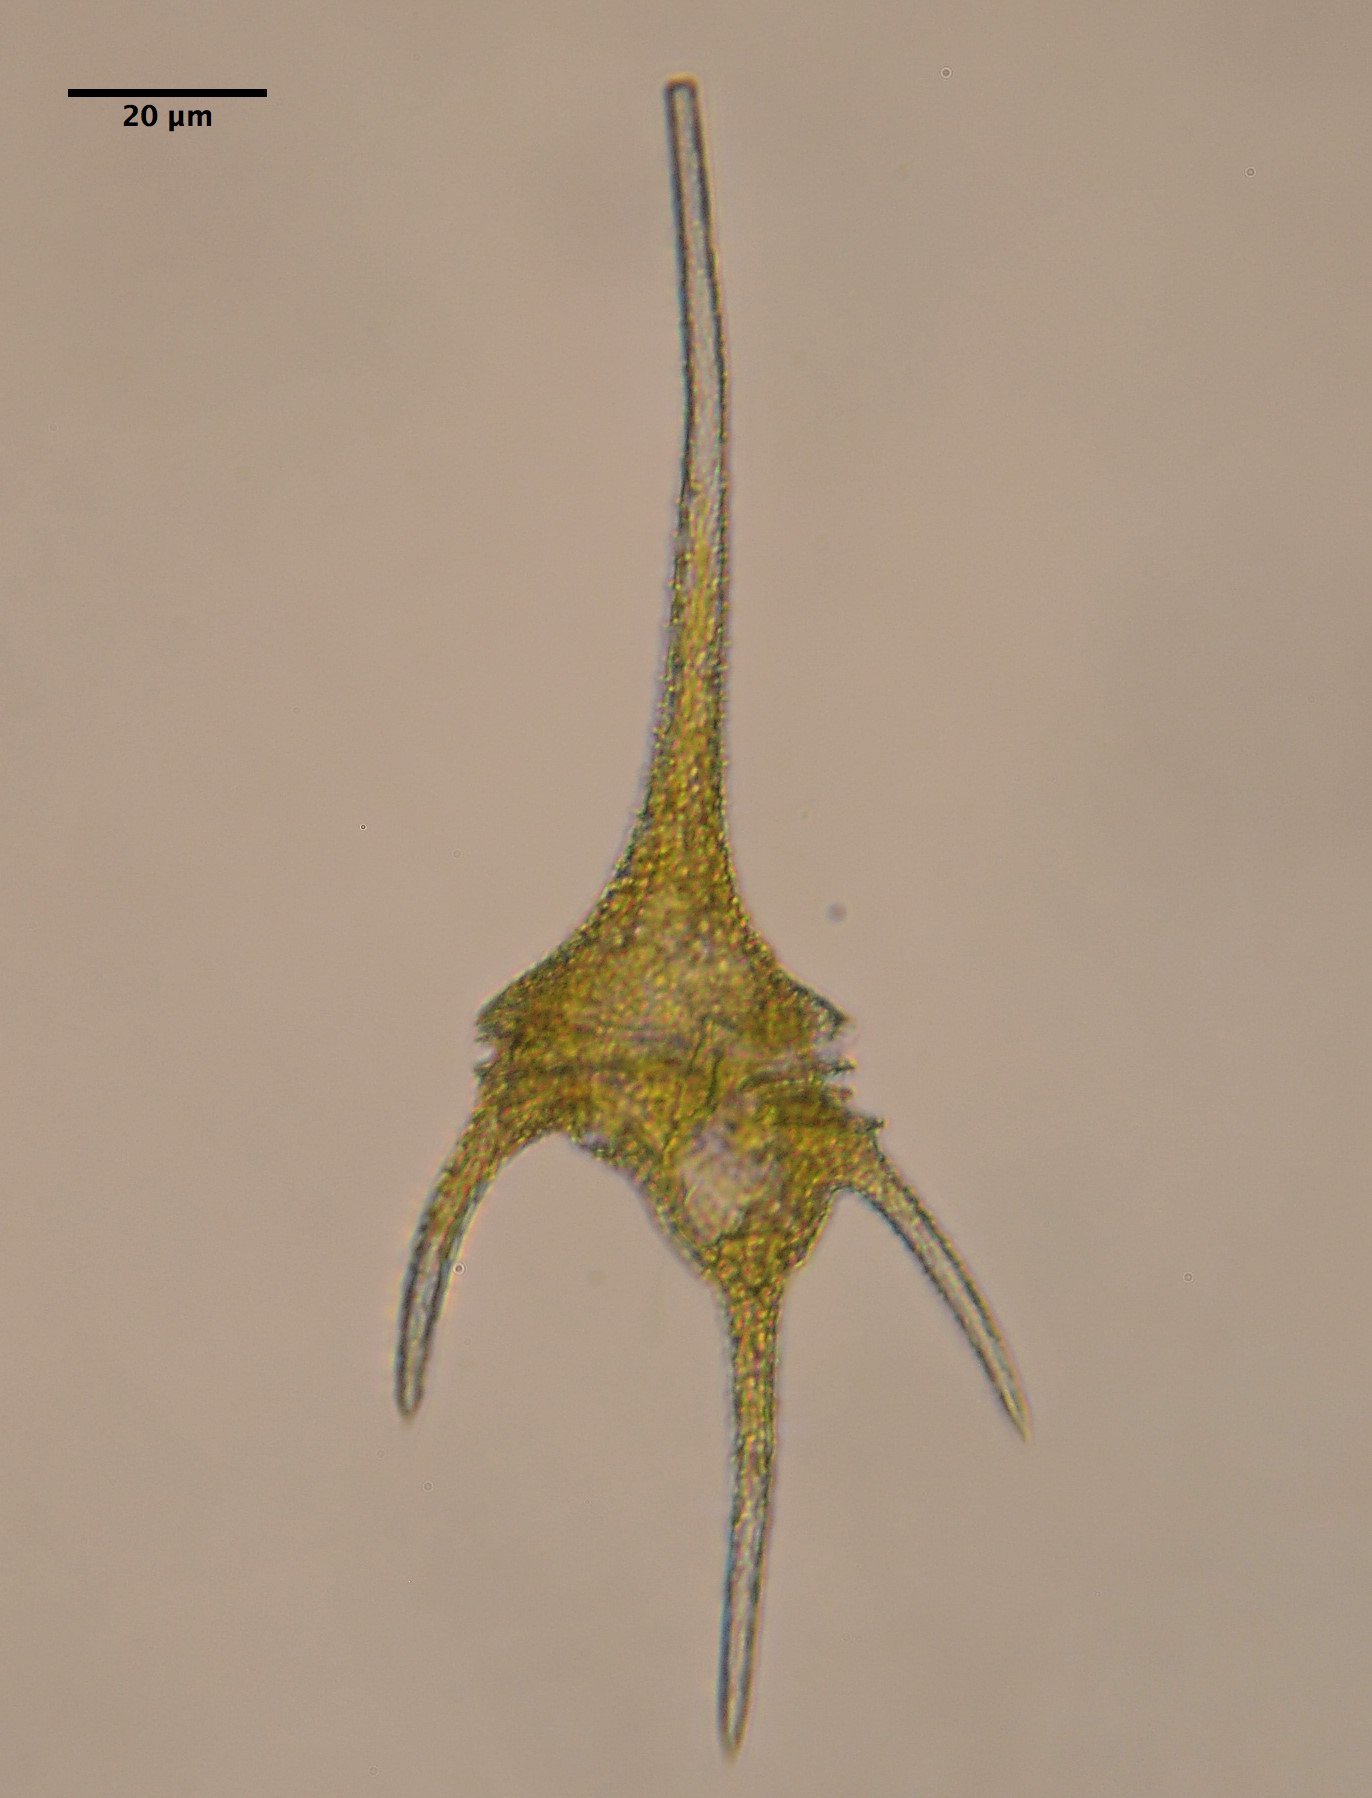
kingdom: Chromista
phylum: Myzozoa
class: Dinophyceae
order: Gonyaulacales
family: Ceratiaceae
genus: Ceratium
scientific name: Ceratium hirundinella
